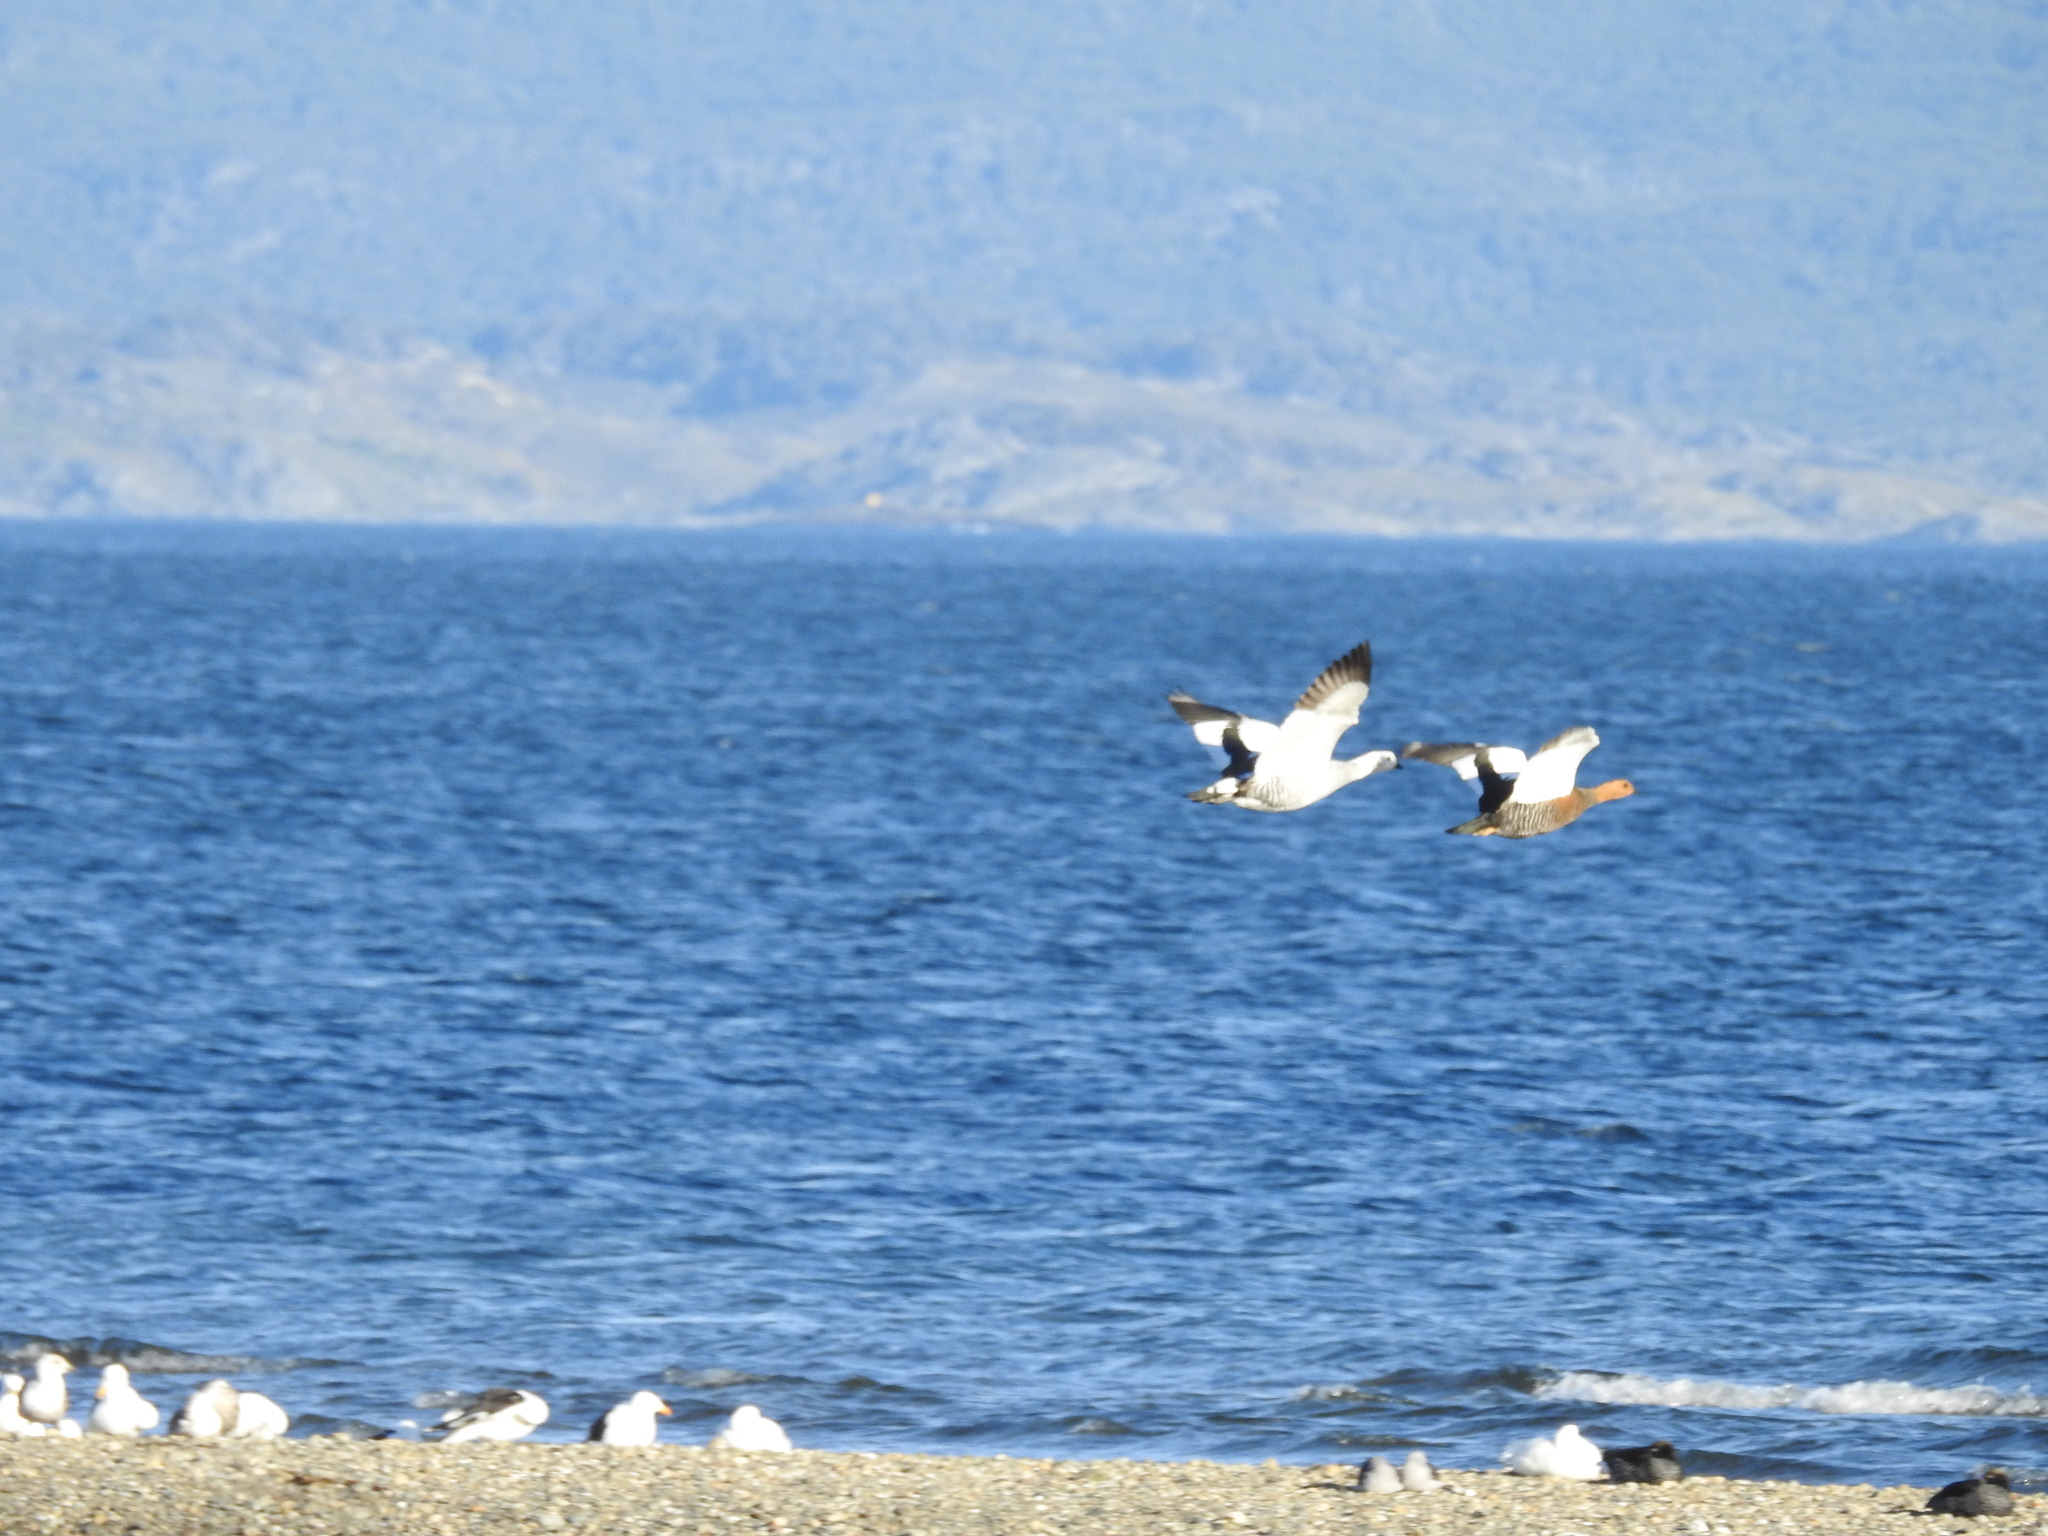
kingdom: Animalia
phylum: Chordata
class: Aves
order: Anseriformes
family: Anatidae
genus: Chloephaga
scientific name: Chloephaga picta
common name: Upland goose
